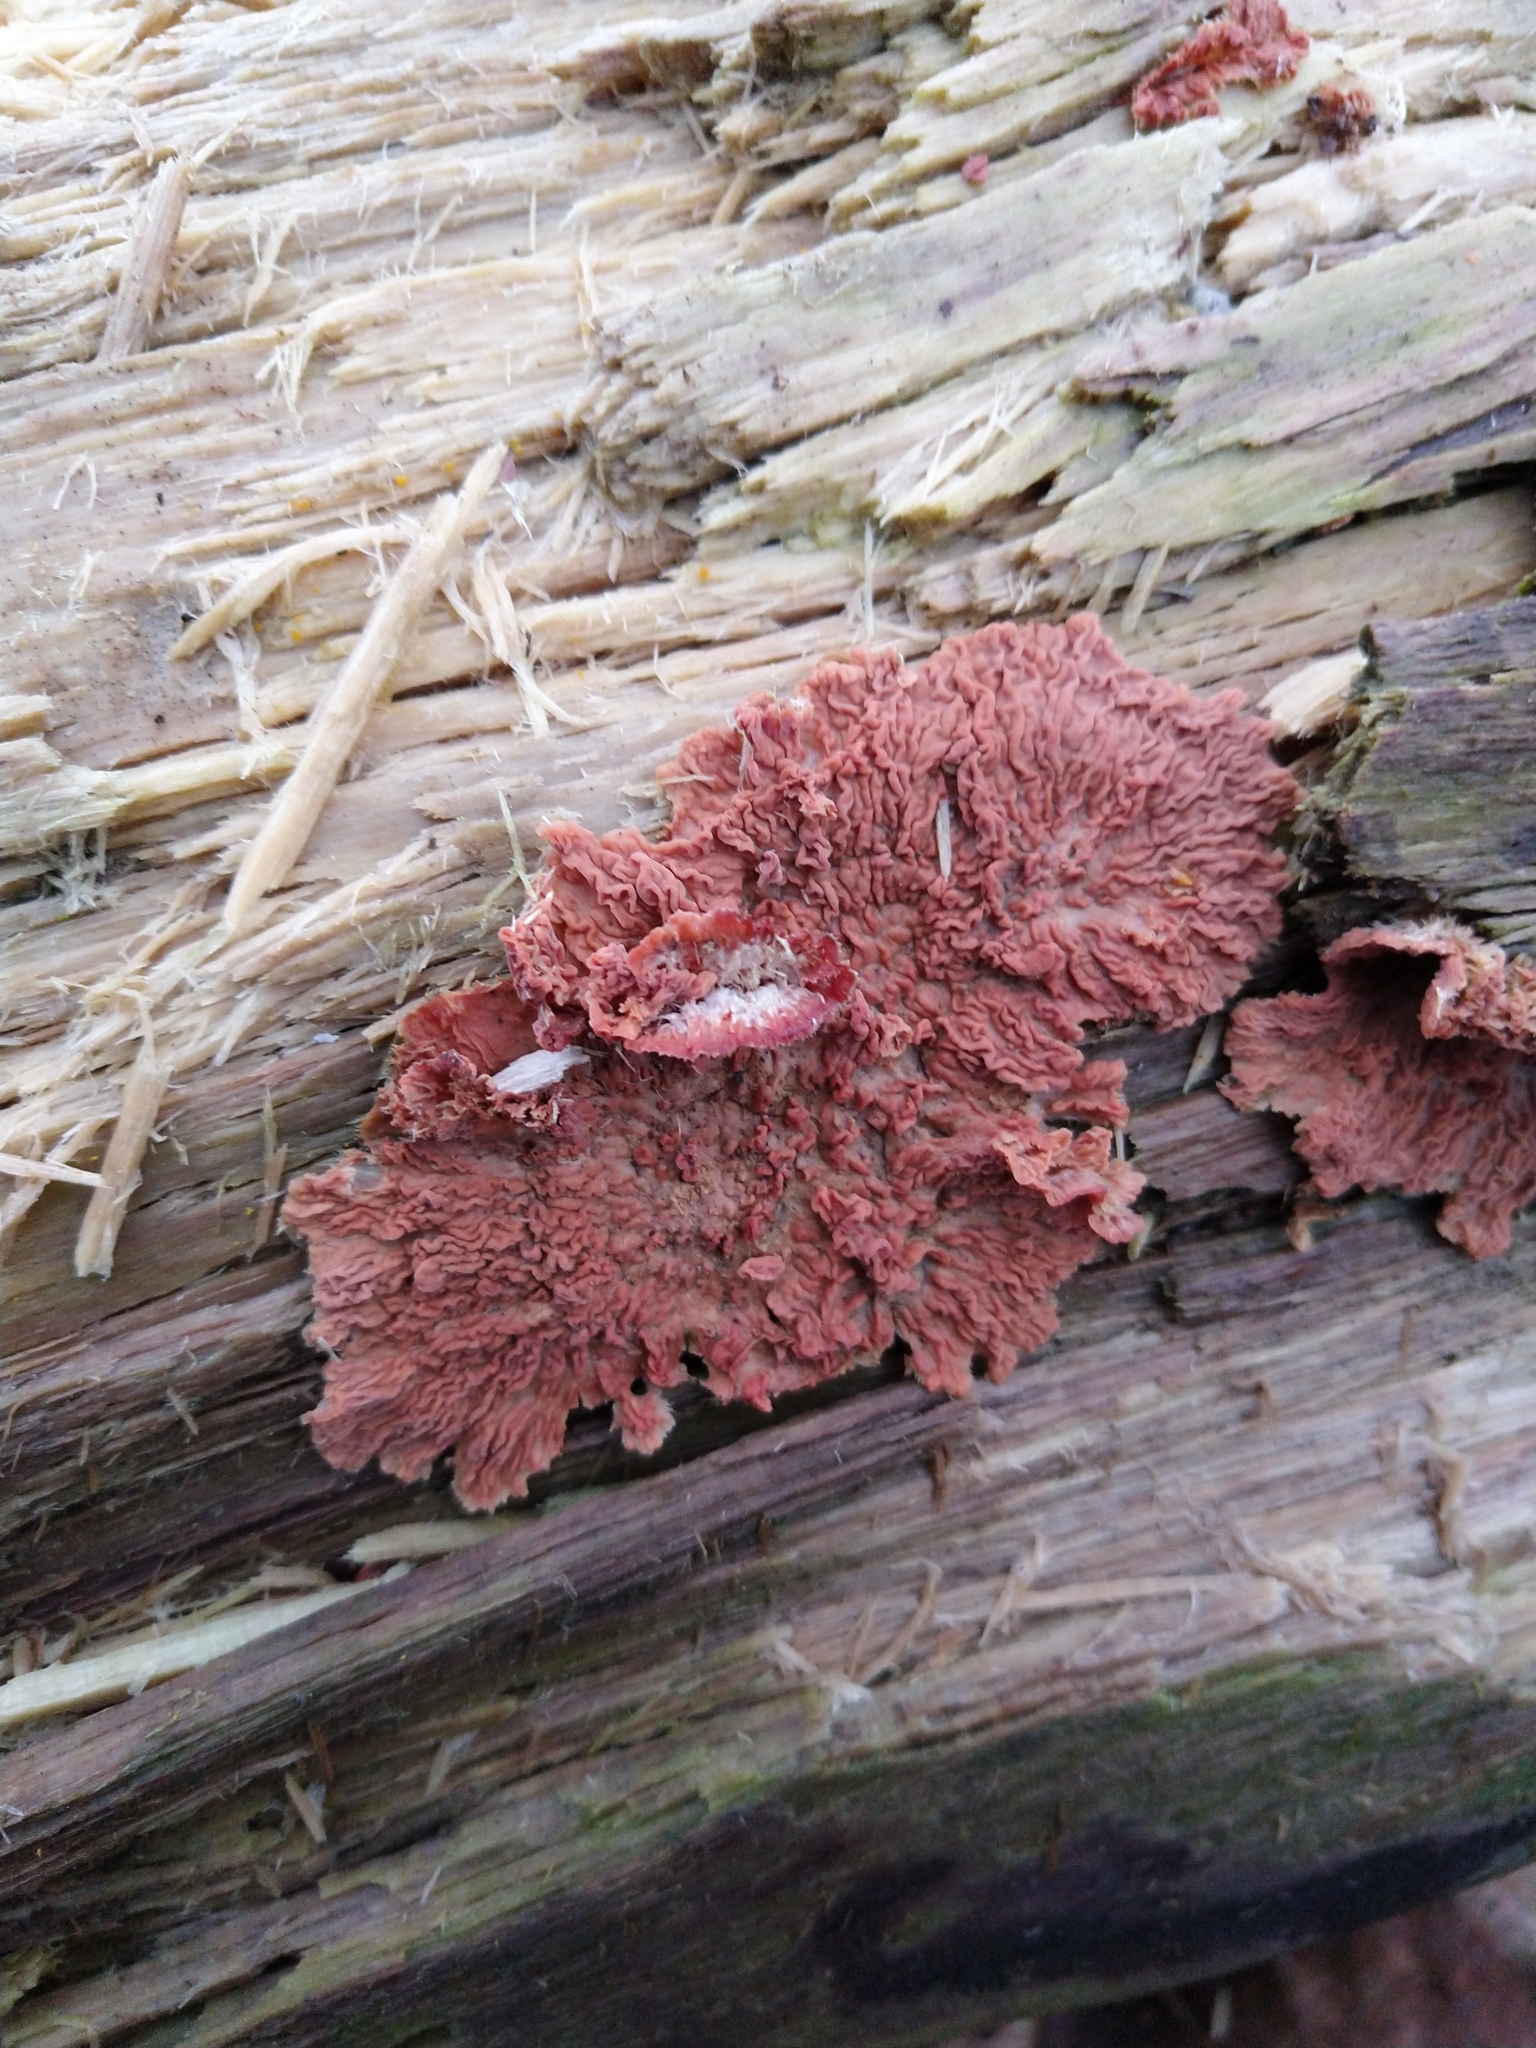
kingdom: Fungi
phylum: Basidiomycota
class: Agaricomycetes
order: Polyporales
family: Meruliaceae
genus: Phlebia
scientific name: Phlebia radiata
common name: Wrinkled crust
